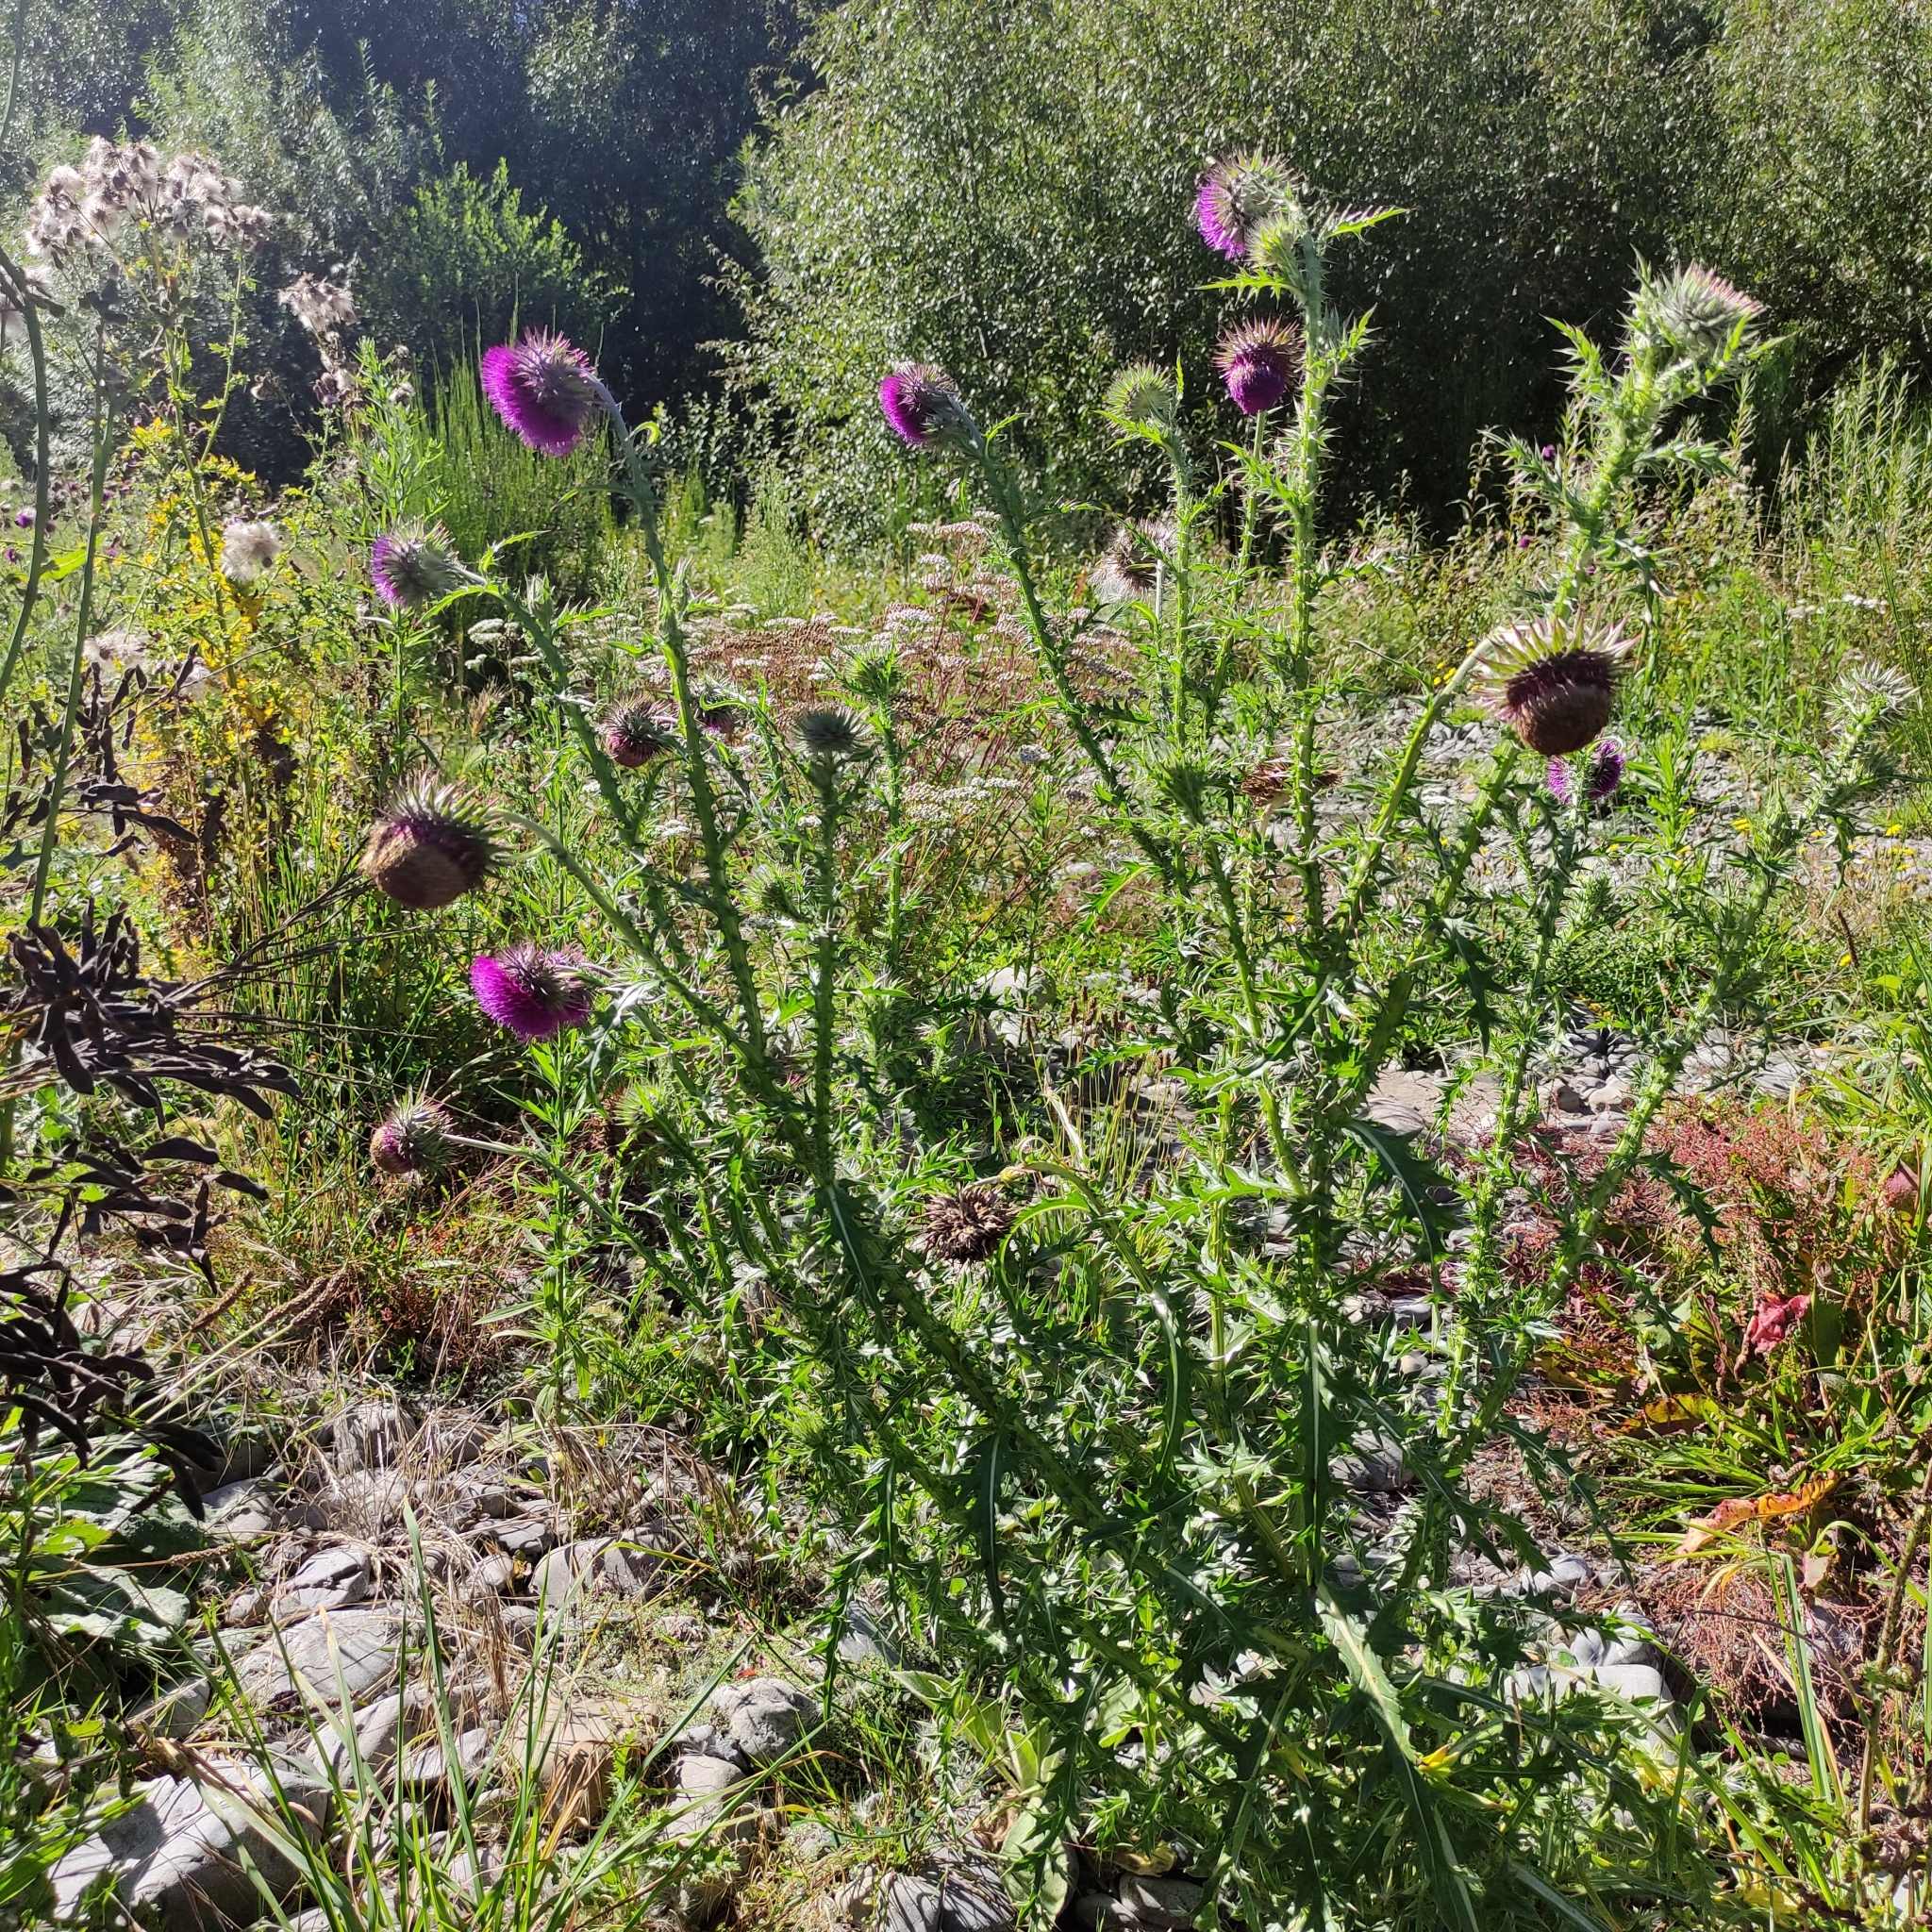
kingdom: Plantae
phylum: Tracheophyta
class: Magnoliopsida
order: Asterales
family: Asteraceae
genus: Carduus
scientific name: Carduus nutans
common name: Musk thistle
